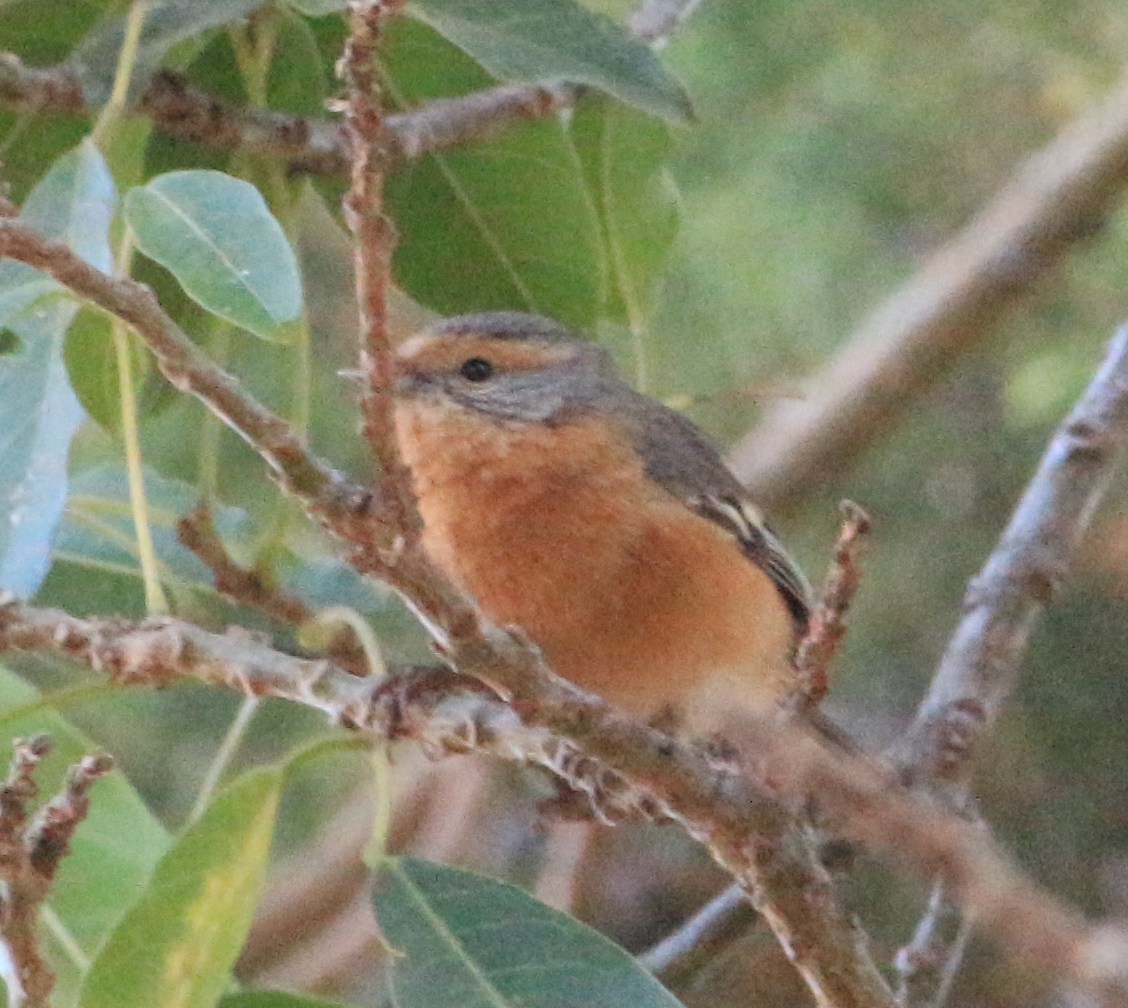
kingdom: Animalia
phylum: Chordata
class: Aves
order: Passeriformes
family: Thraupidae
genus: Microspingus
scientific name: Microspingus erythrophrys
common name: Rusty-browed warbling-finch
